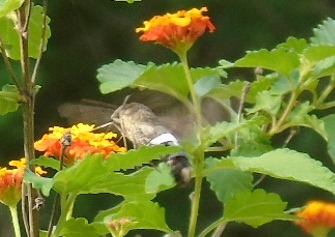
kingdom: Animalia
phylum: Arthropoda
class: Insecta
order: Lepidoptera
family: Sphingidae
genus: Aellopos
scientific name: Aellopos
